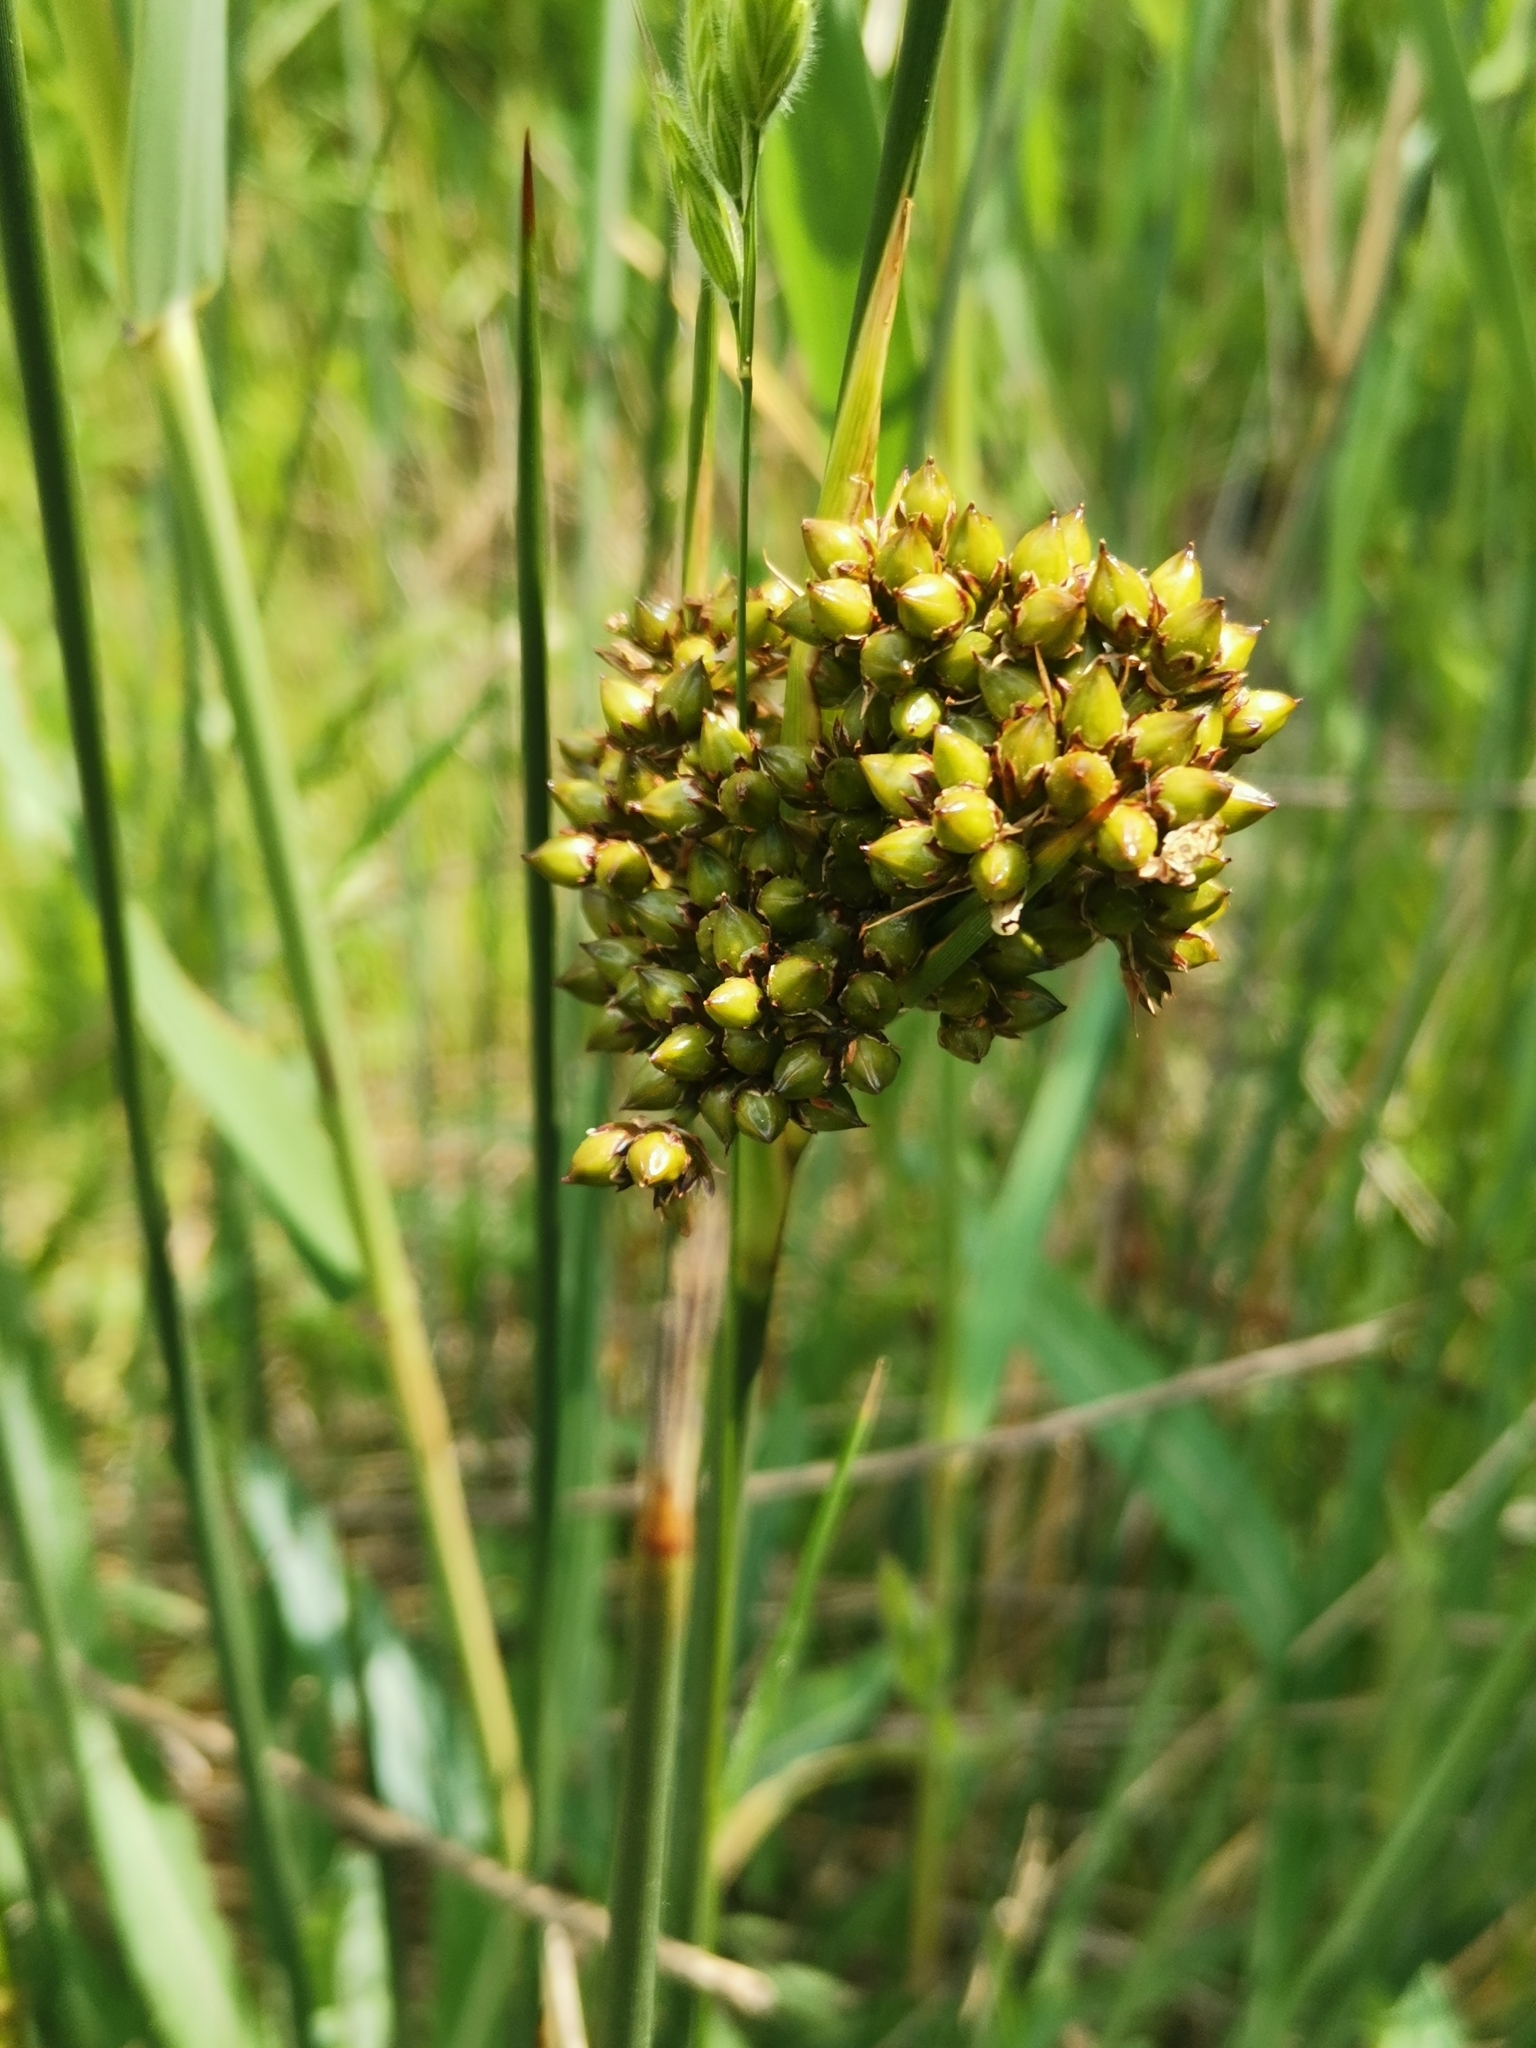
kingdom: Plantae
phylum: Tracheophyta
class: Liliopsida
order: Poales
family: Juncaceae
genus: Juncus
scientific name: Juncus acutus
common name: Sharp rush
